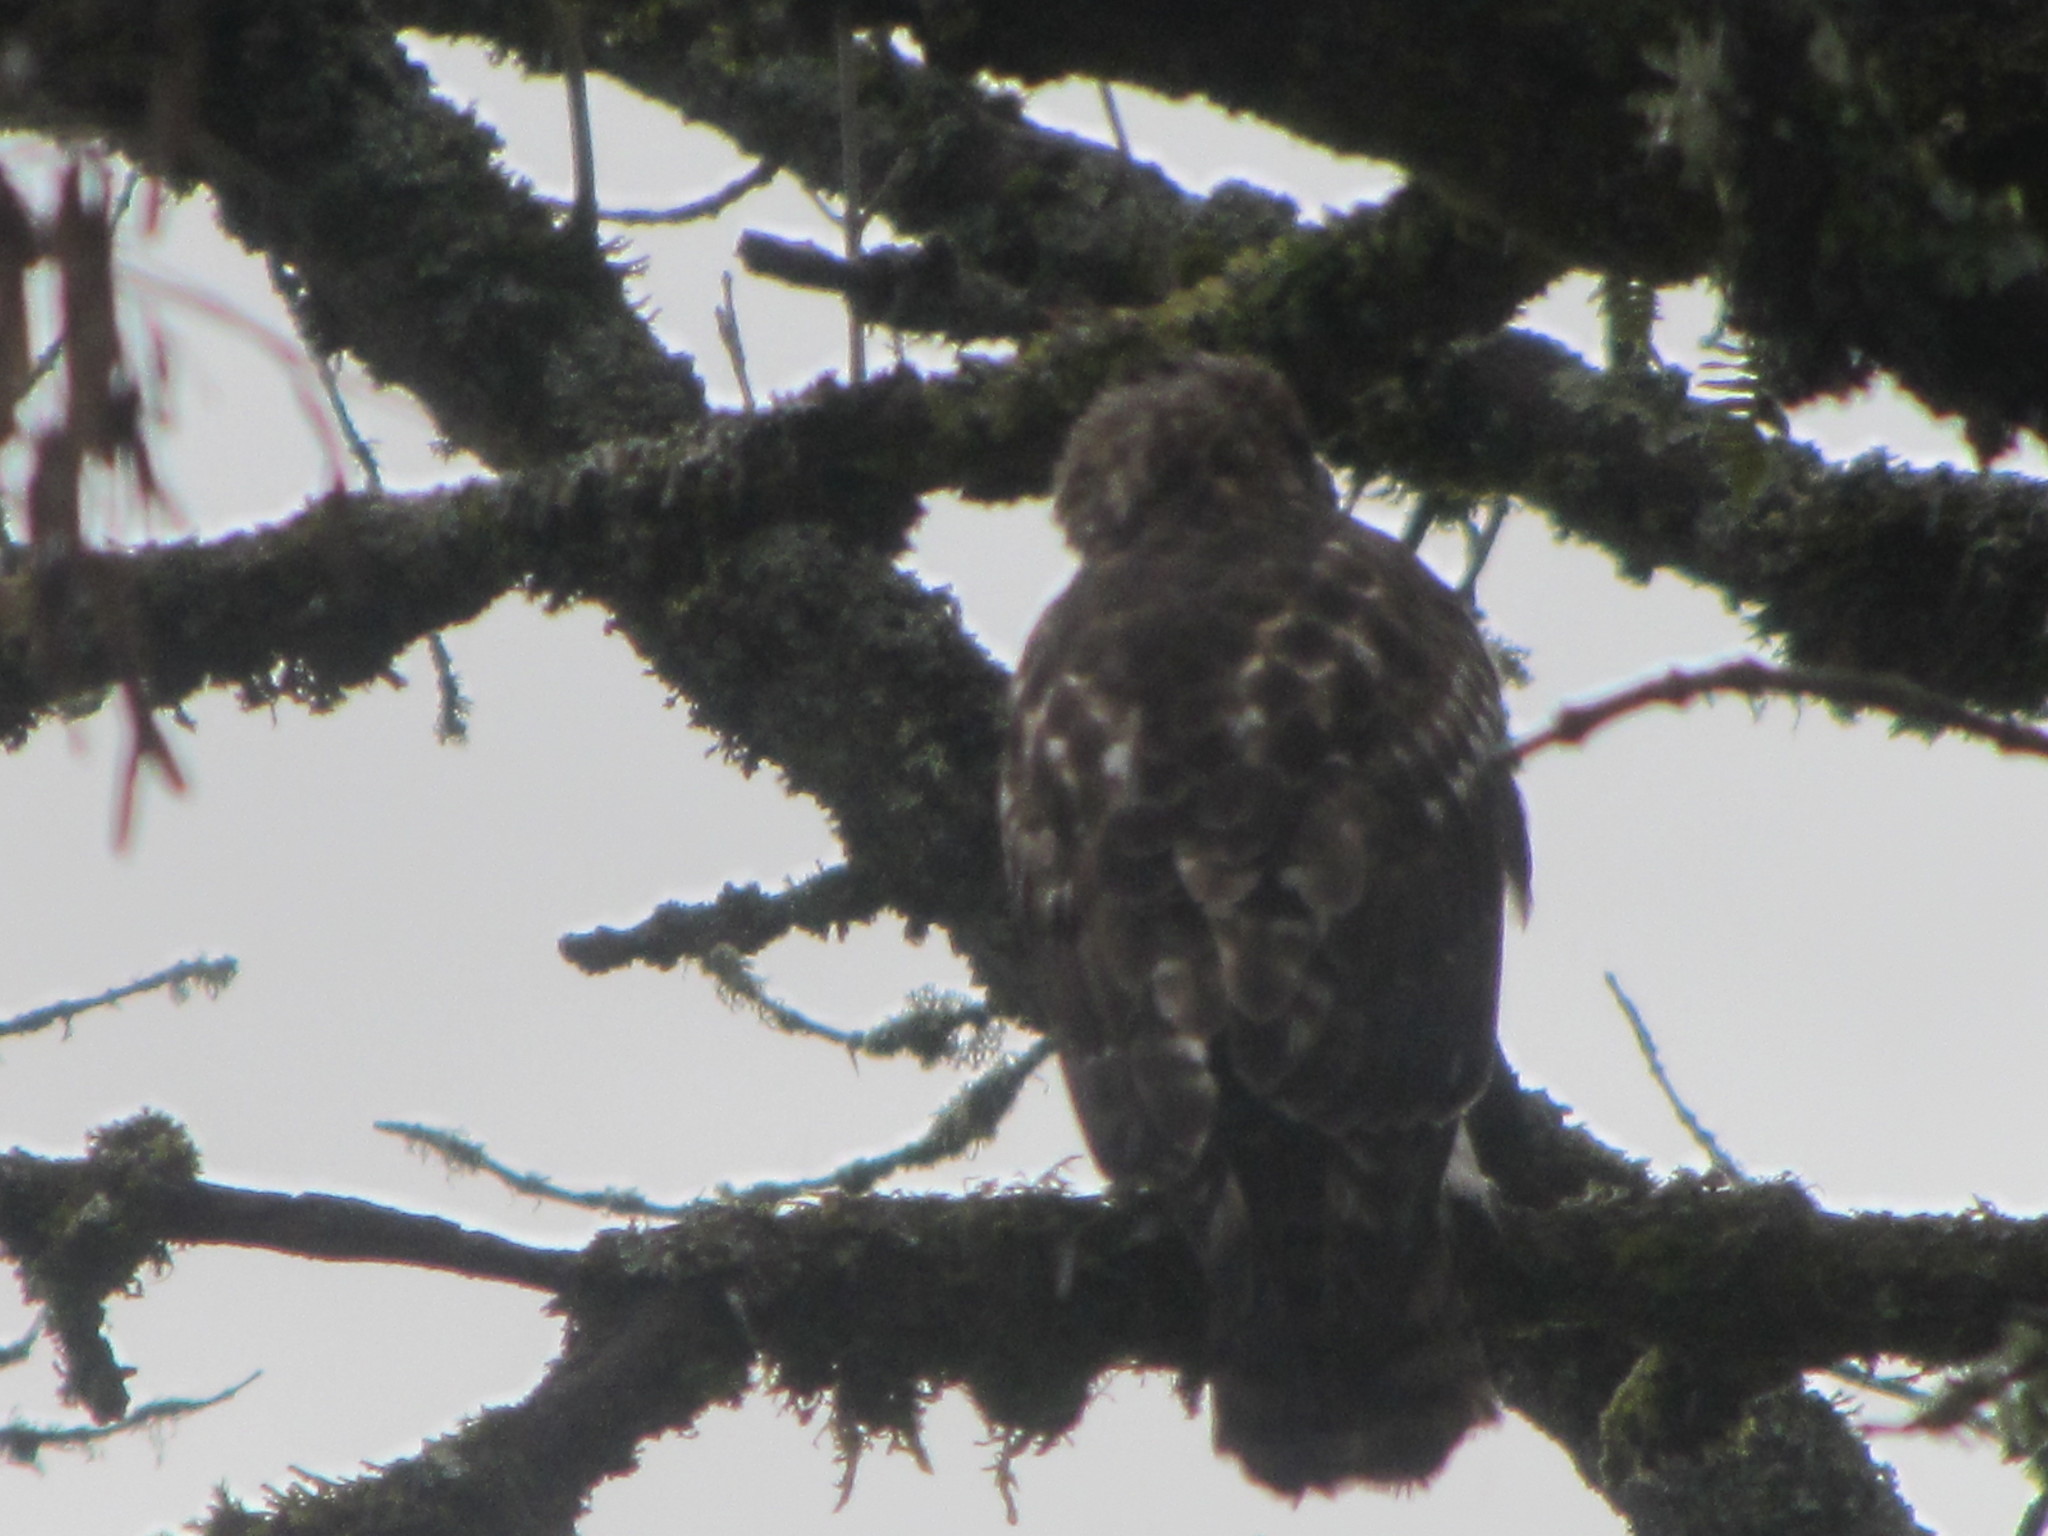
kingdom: Animalia
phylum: Chordata
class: Aves
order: Accipitriformes
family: Accipitridae
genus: Buteo
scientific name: Buteo jamaicensis
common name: Red-tailed hawk
